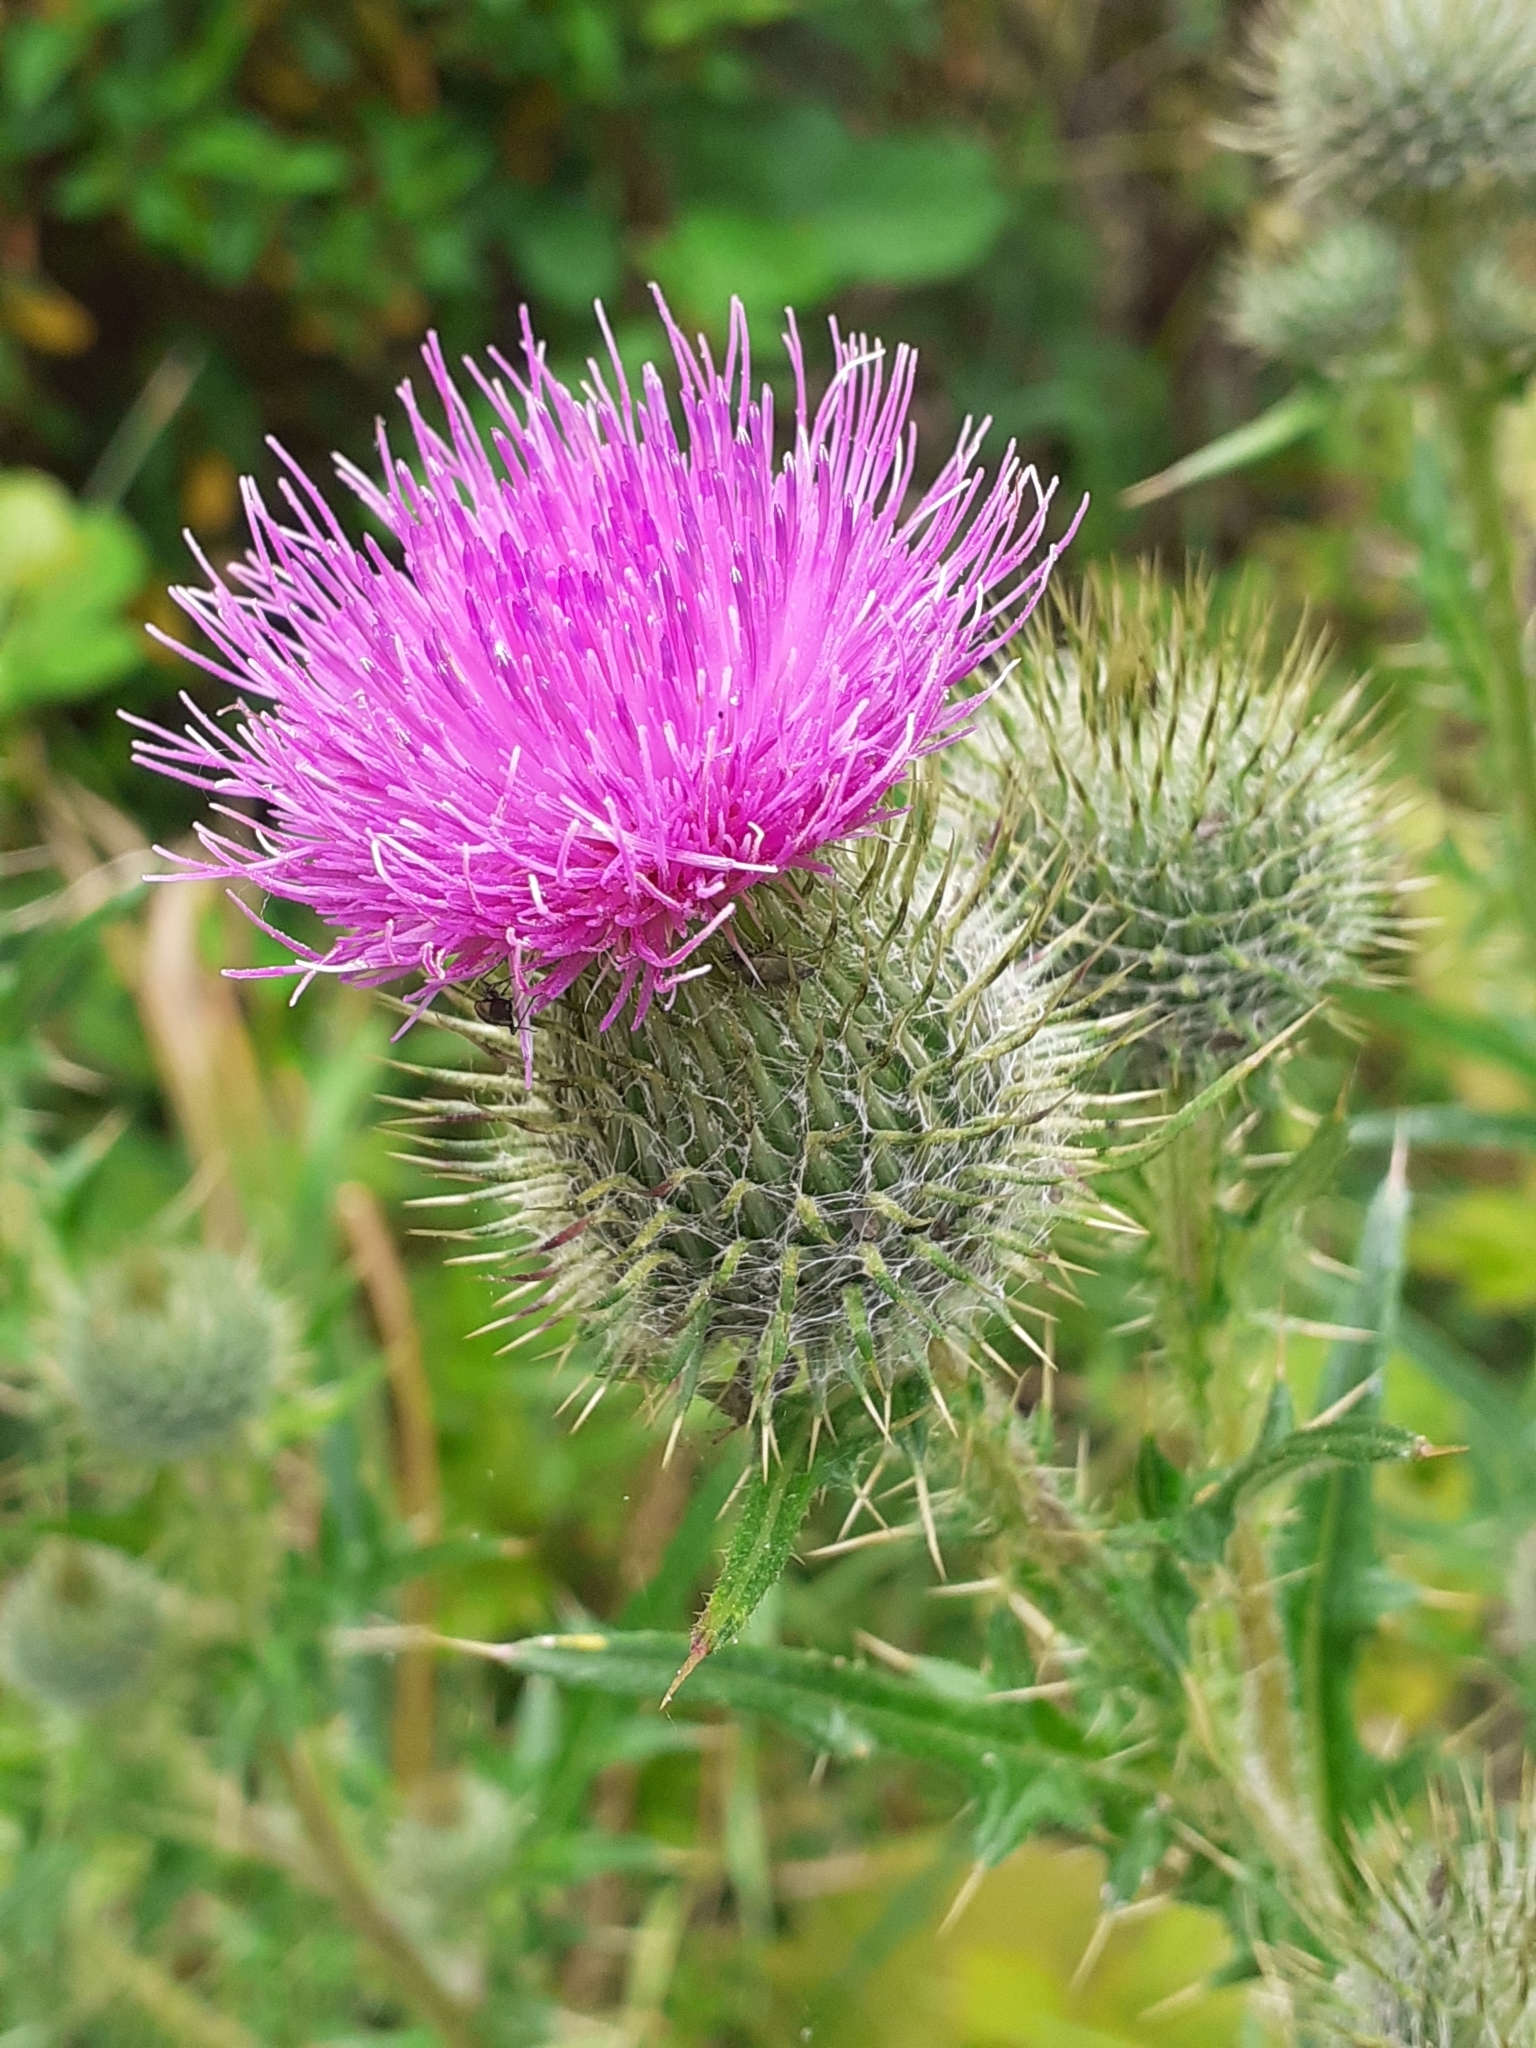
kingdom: Plantae
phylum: Tracheophyta
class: Magnoliopsida
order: Asterales
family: Asteraceae
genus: Cirsium
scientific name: Cirsium vulgare
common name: Bull thistle
